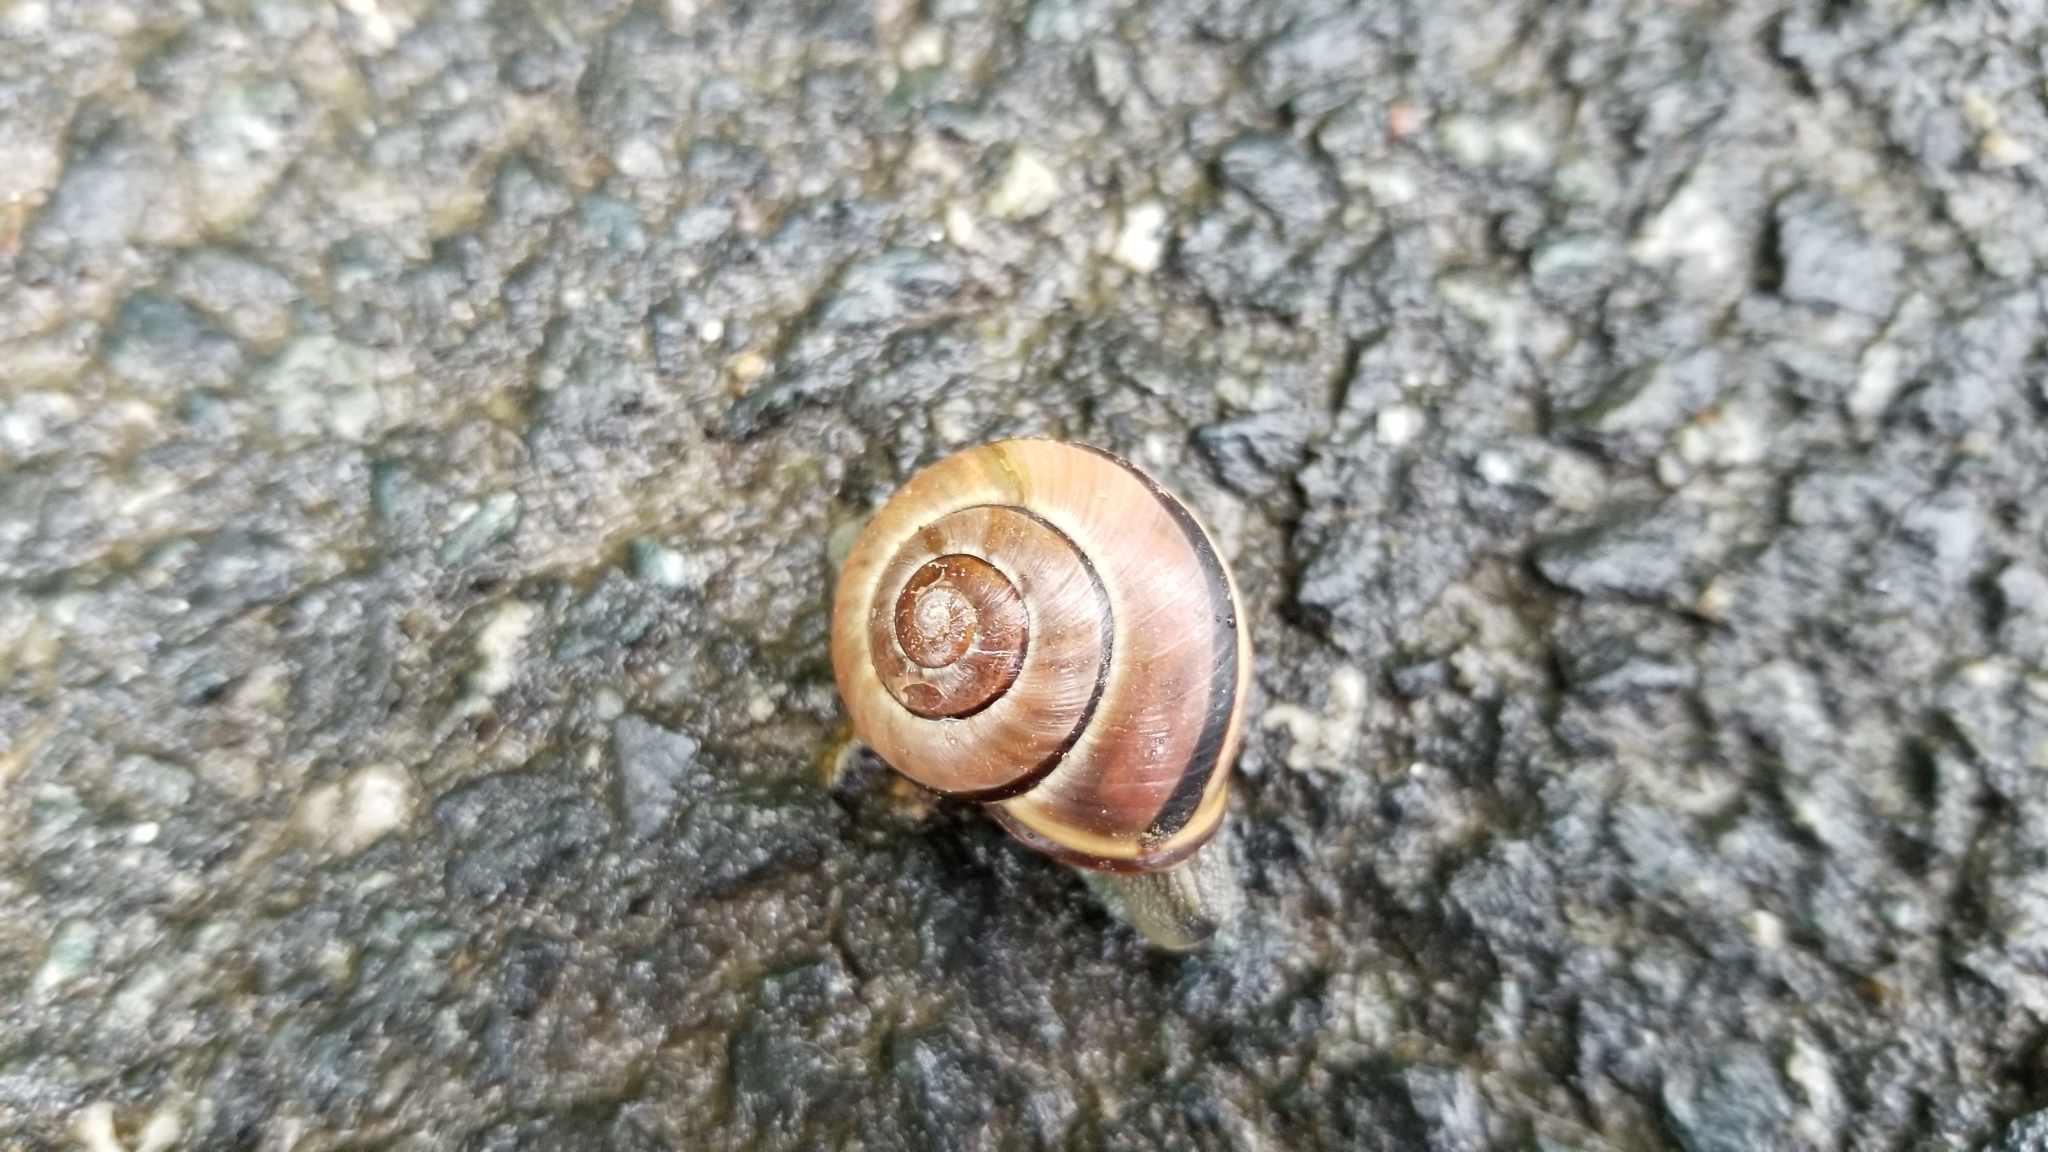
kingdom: Animalia
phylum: Mollusca
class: Gastropoda
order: Stylommatophora
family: Helicidae
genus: Cepaea
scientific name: Cepaea nemoralis
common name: Grovesnail
